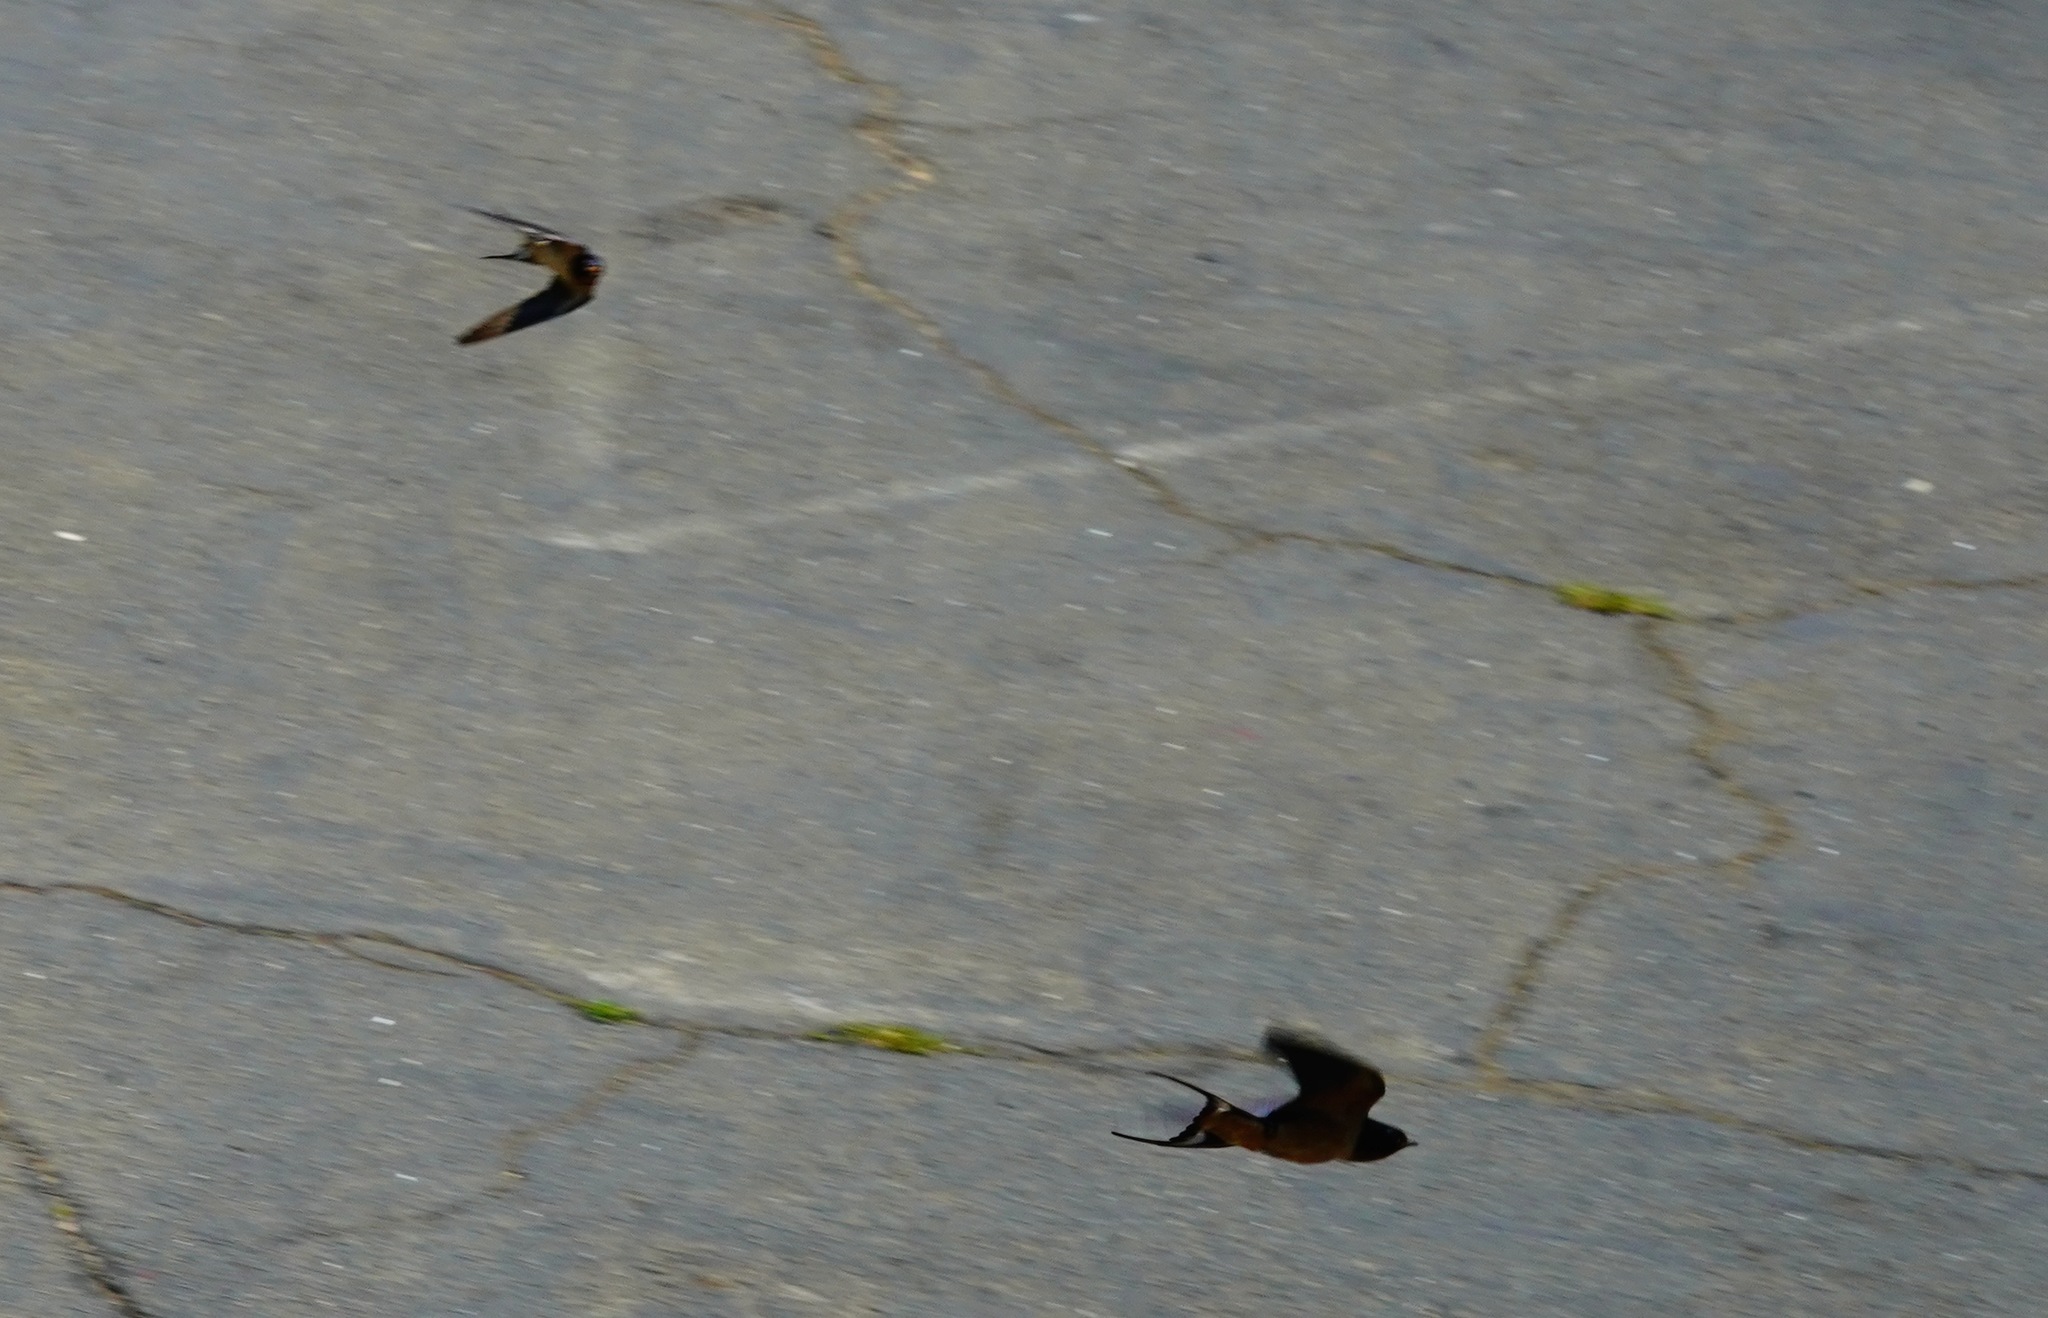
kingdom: Animalia
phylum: Chordata
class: Aves
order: Passeriformes
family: Hirundinidae
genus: Hirundo
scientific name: Hirundo rustica
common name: Barn swallow
